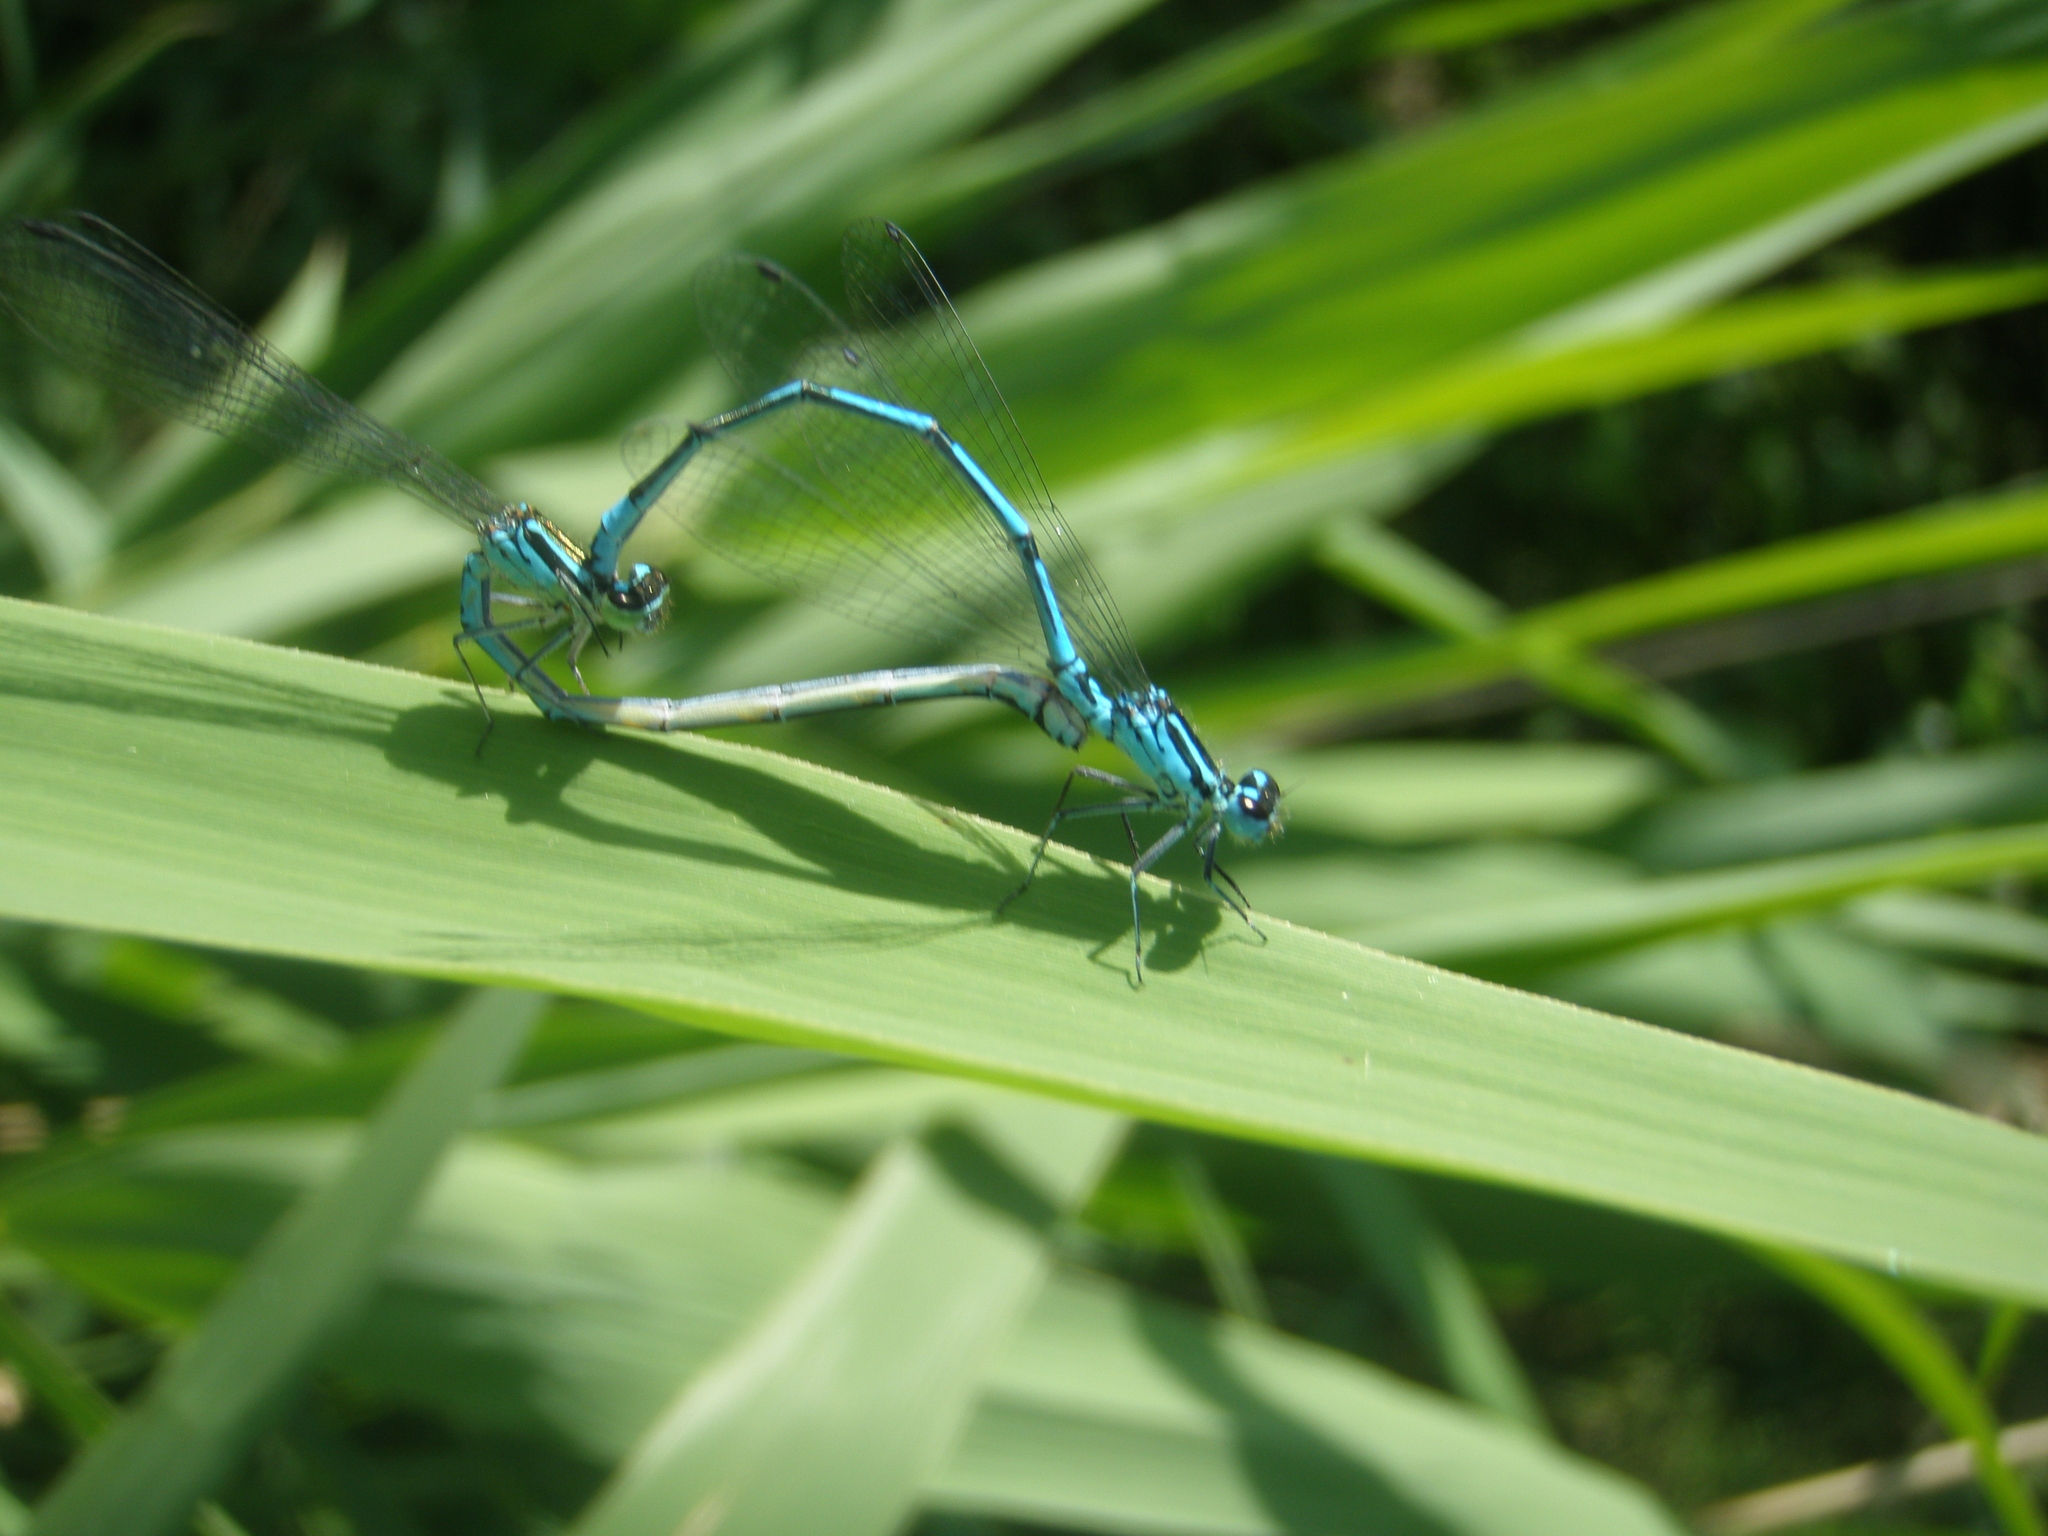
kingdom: Animalia
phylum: Arthropoda
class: Insecta
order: Odonata
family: Coenagrionidae
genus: Coenagrion
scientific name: Coenagrion puella
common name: Azure damselfly
